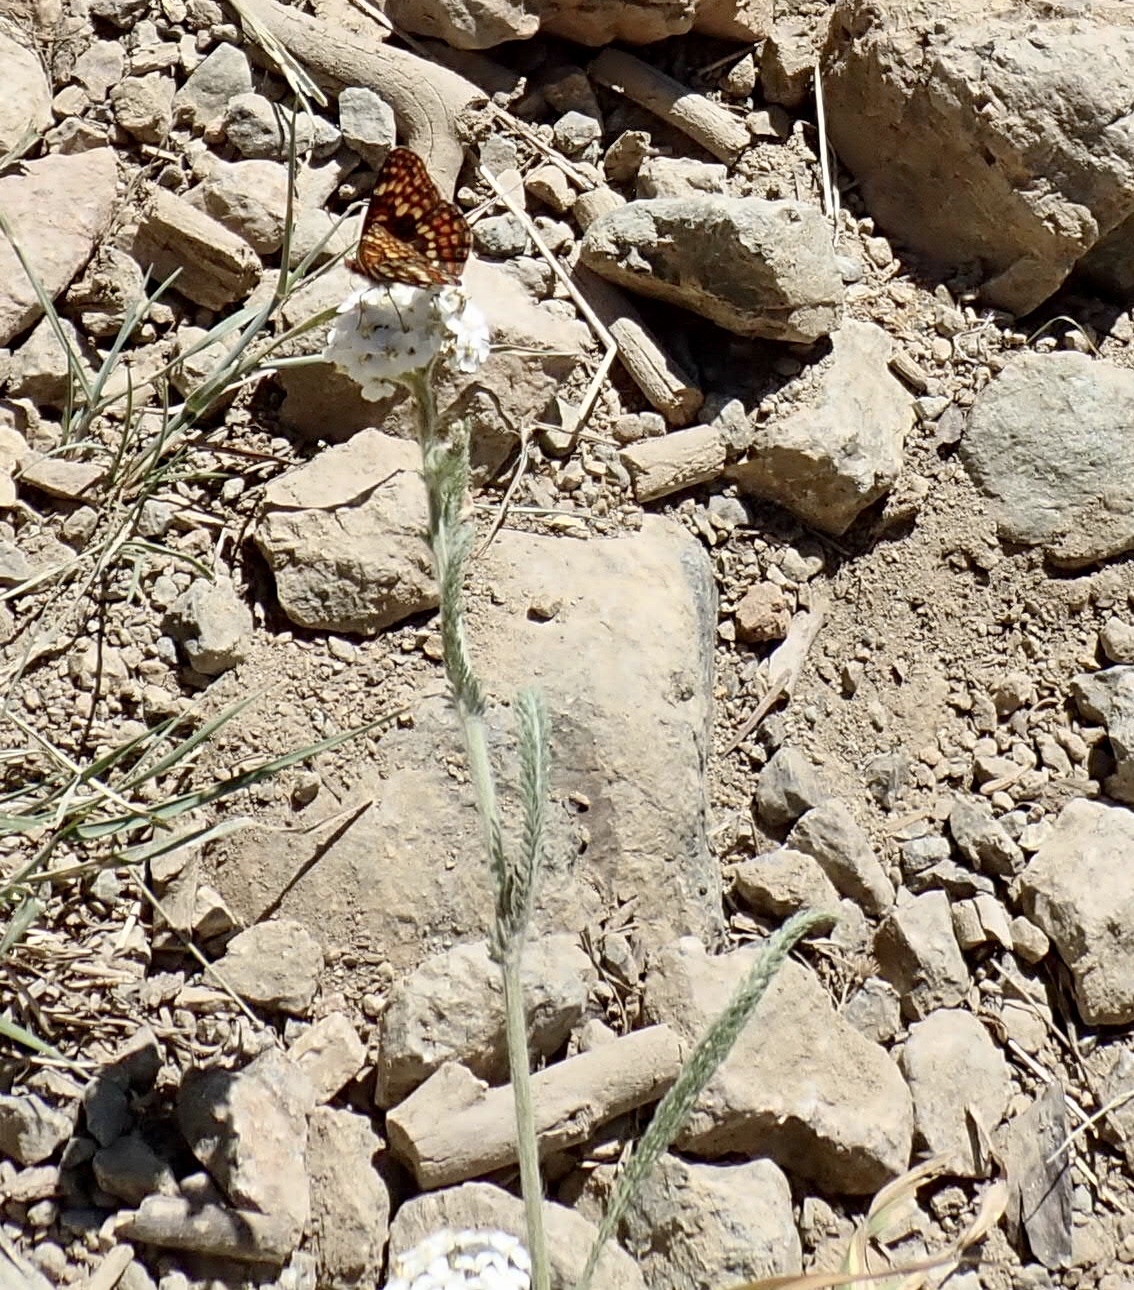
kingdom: Animalia
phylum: Arthropoda
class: Insecta
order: Lepidoptera
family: Nymphalidae
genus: Chlosyne
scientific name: Chlosyne hoffmanni
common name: Hoffmann's checkerspot
